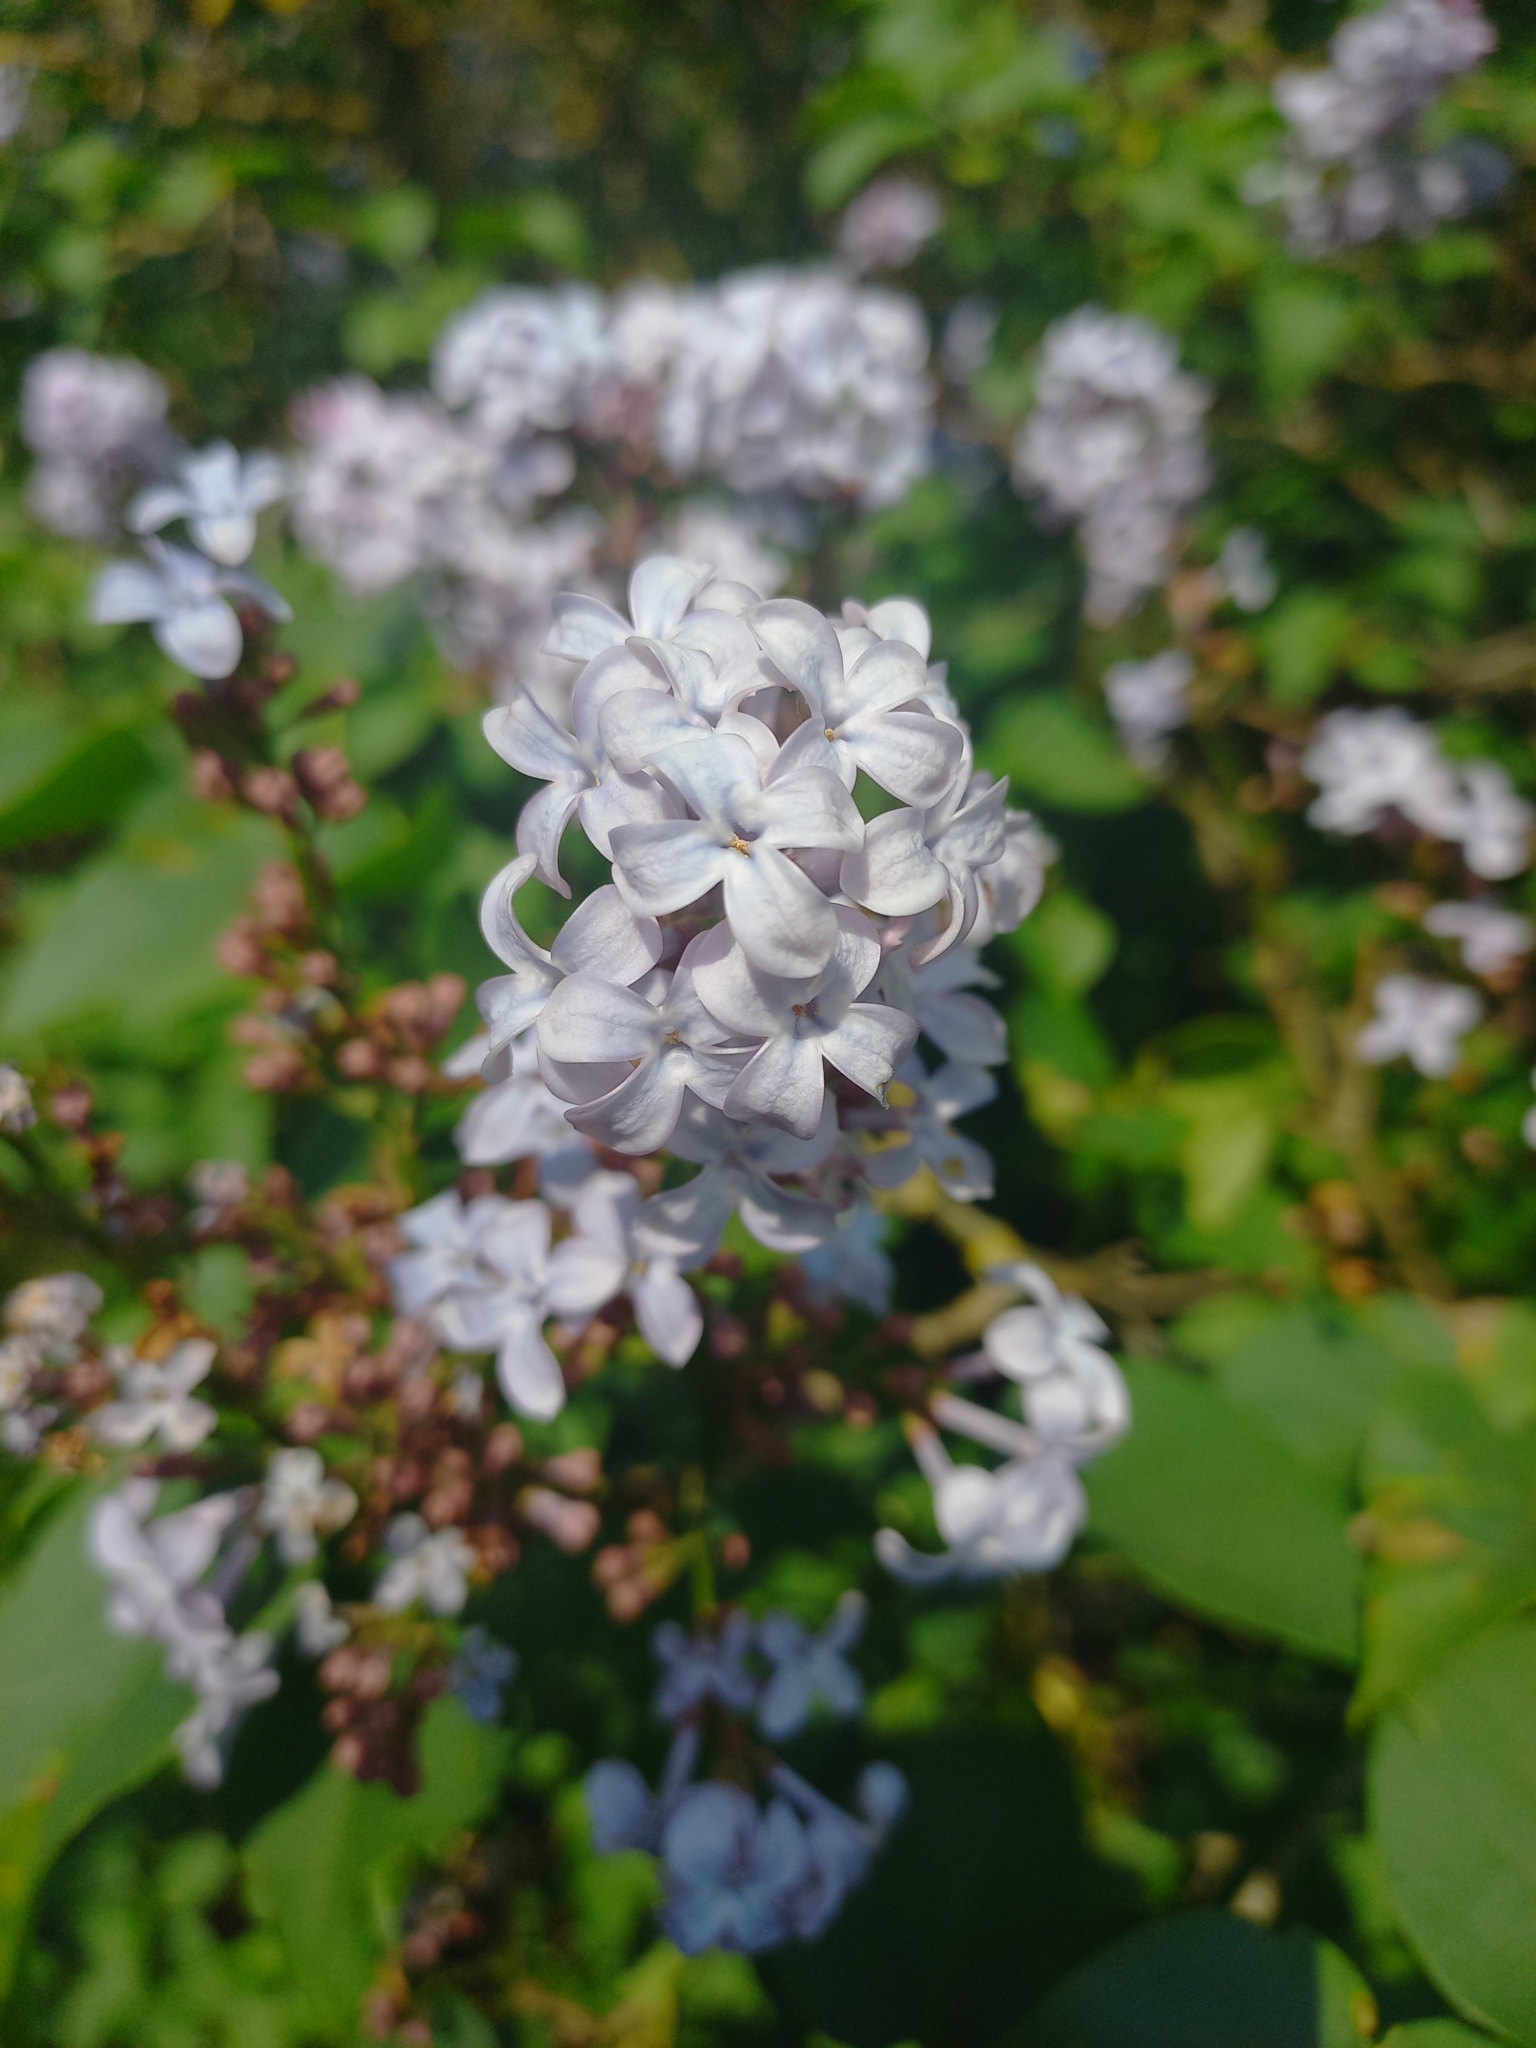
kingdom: Plantae
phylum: Tracheophyta
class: Magnoliopsida
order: Lamiales
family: Oleaceae
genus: Syringa
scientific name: Syringa vulgaris
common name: Common lilac
